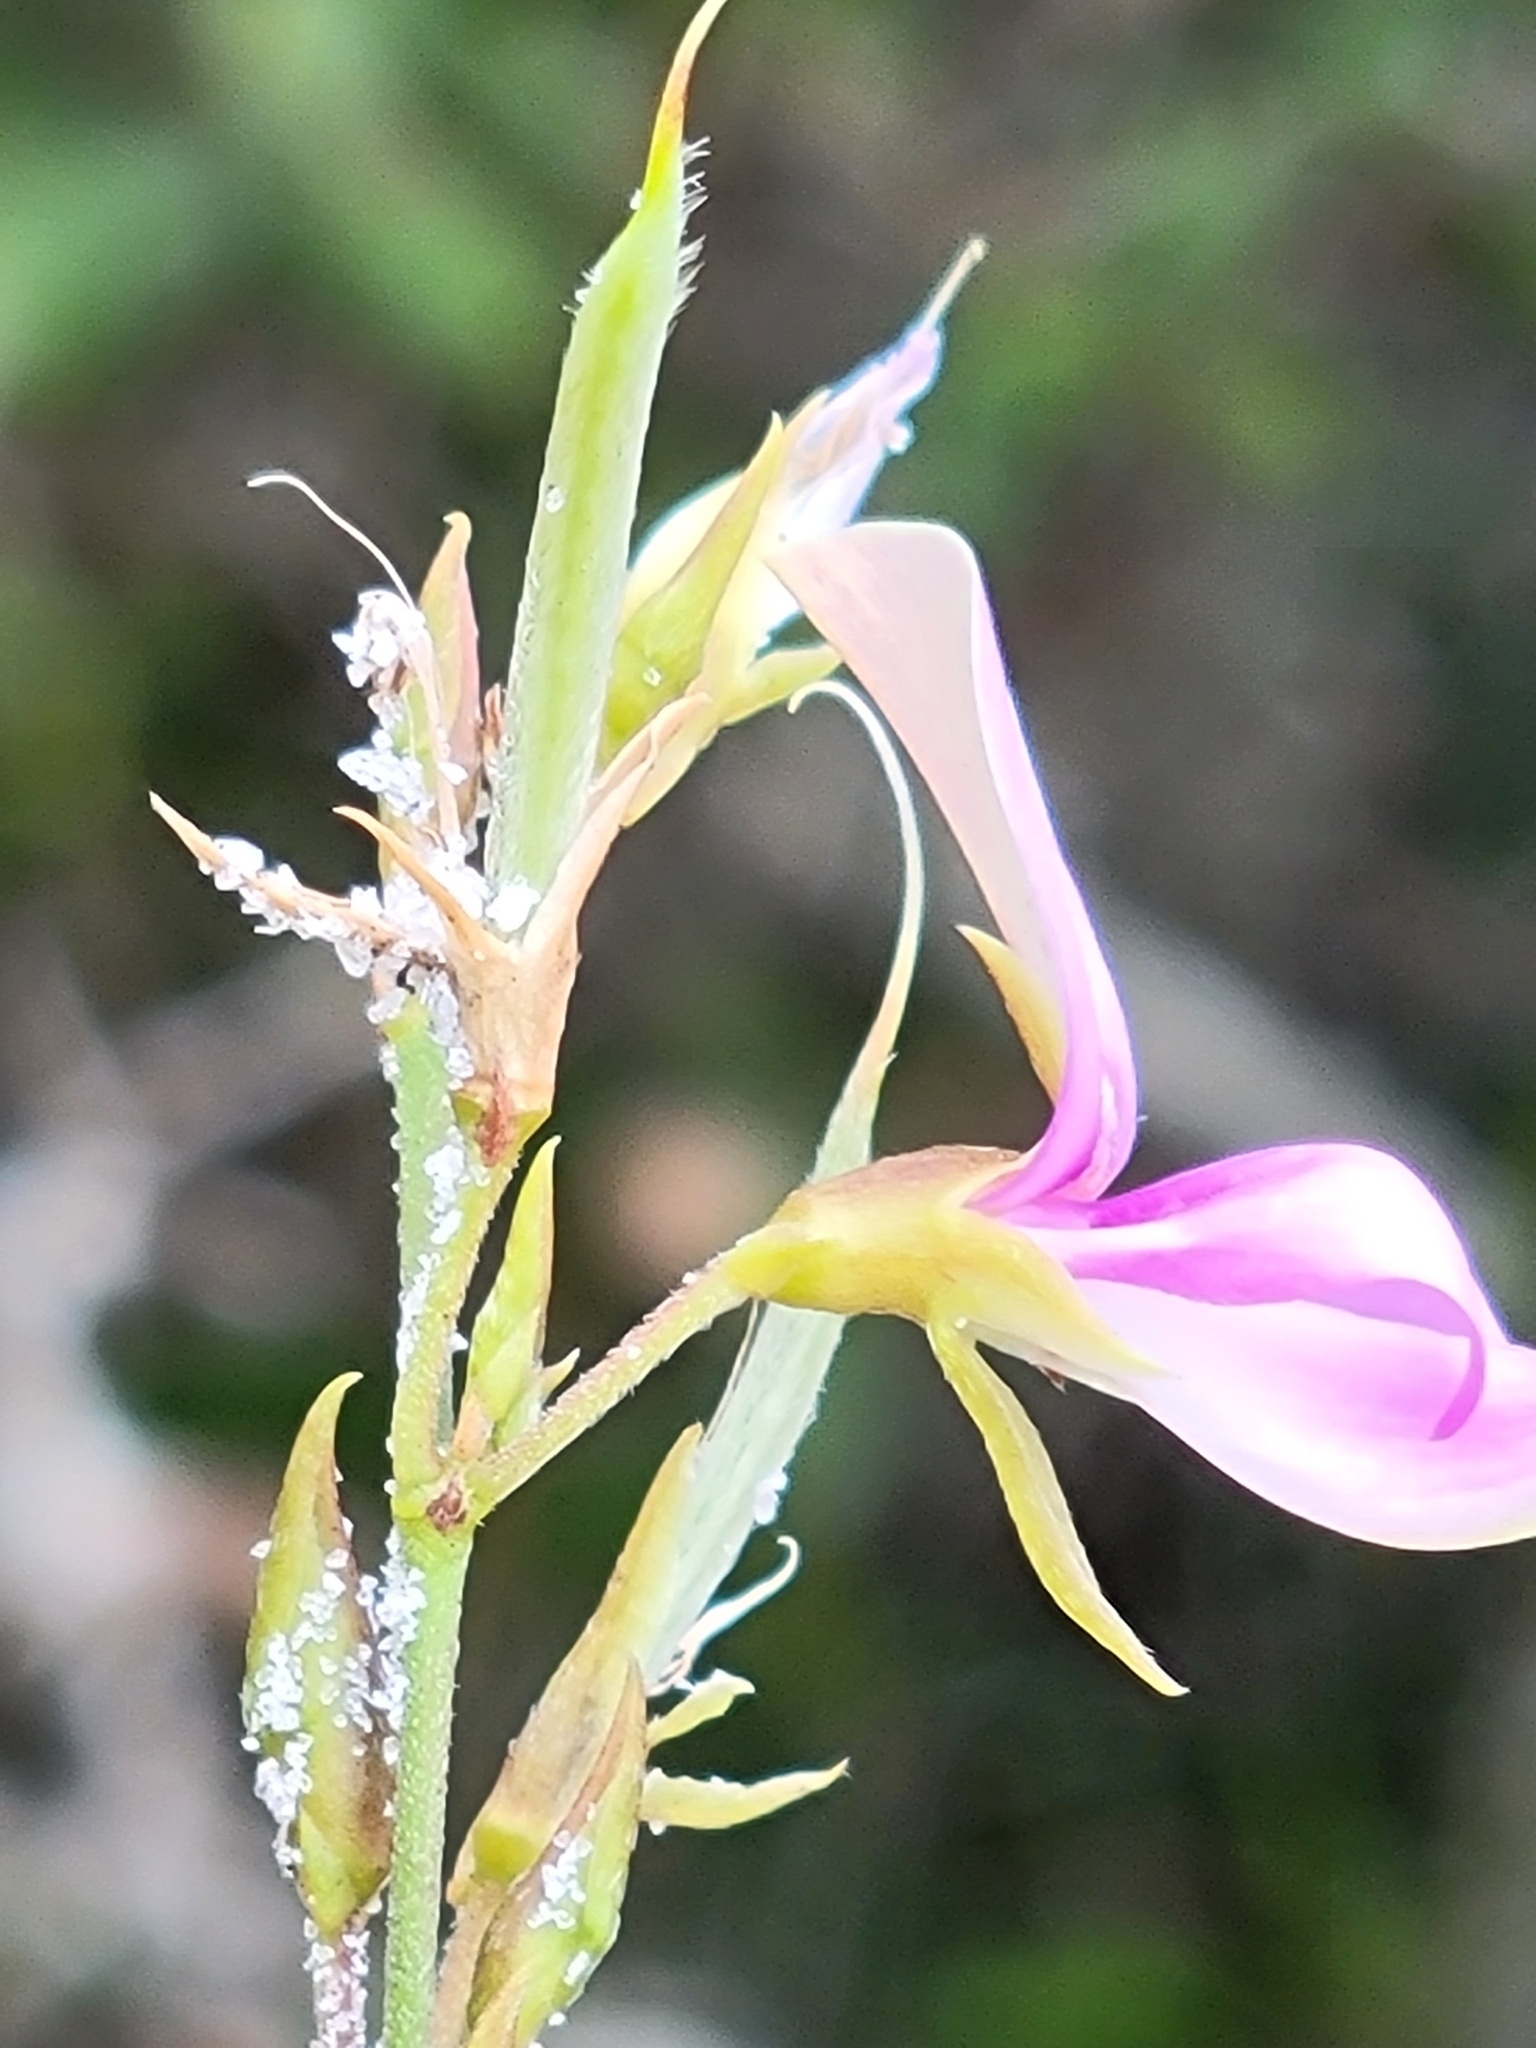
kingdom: Plantae
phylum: Tracheophyta
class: Magnoliopsida
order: Fabales
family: Fabaceae
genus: Galactia
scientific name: Galactia purshii
